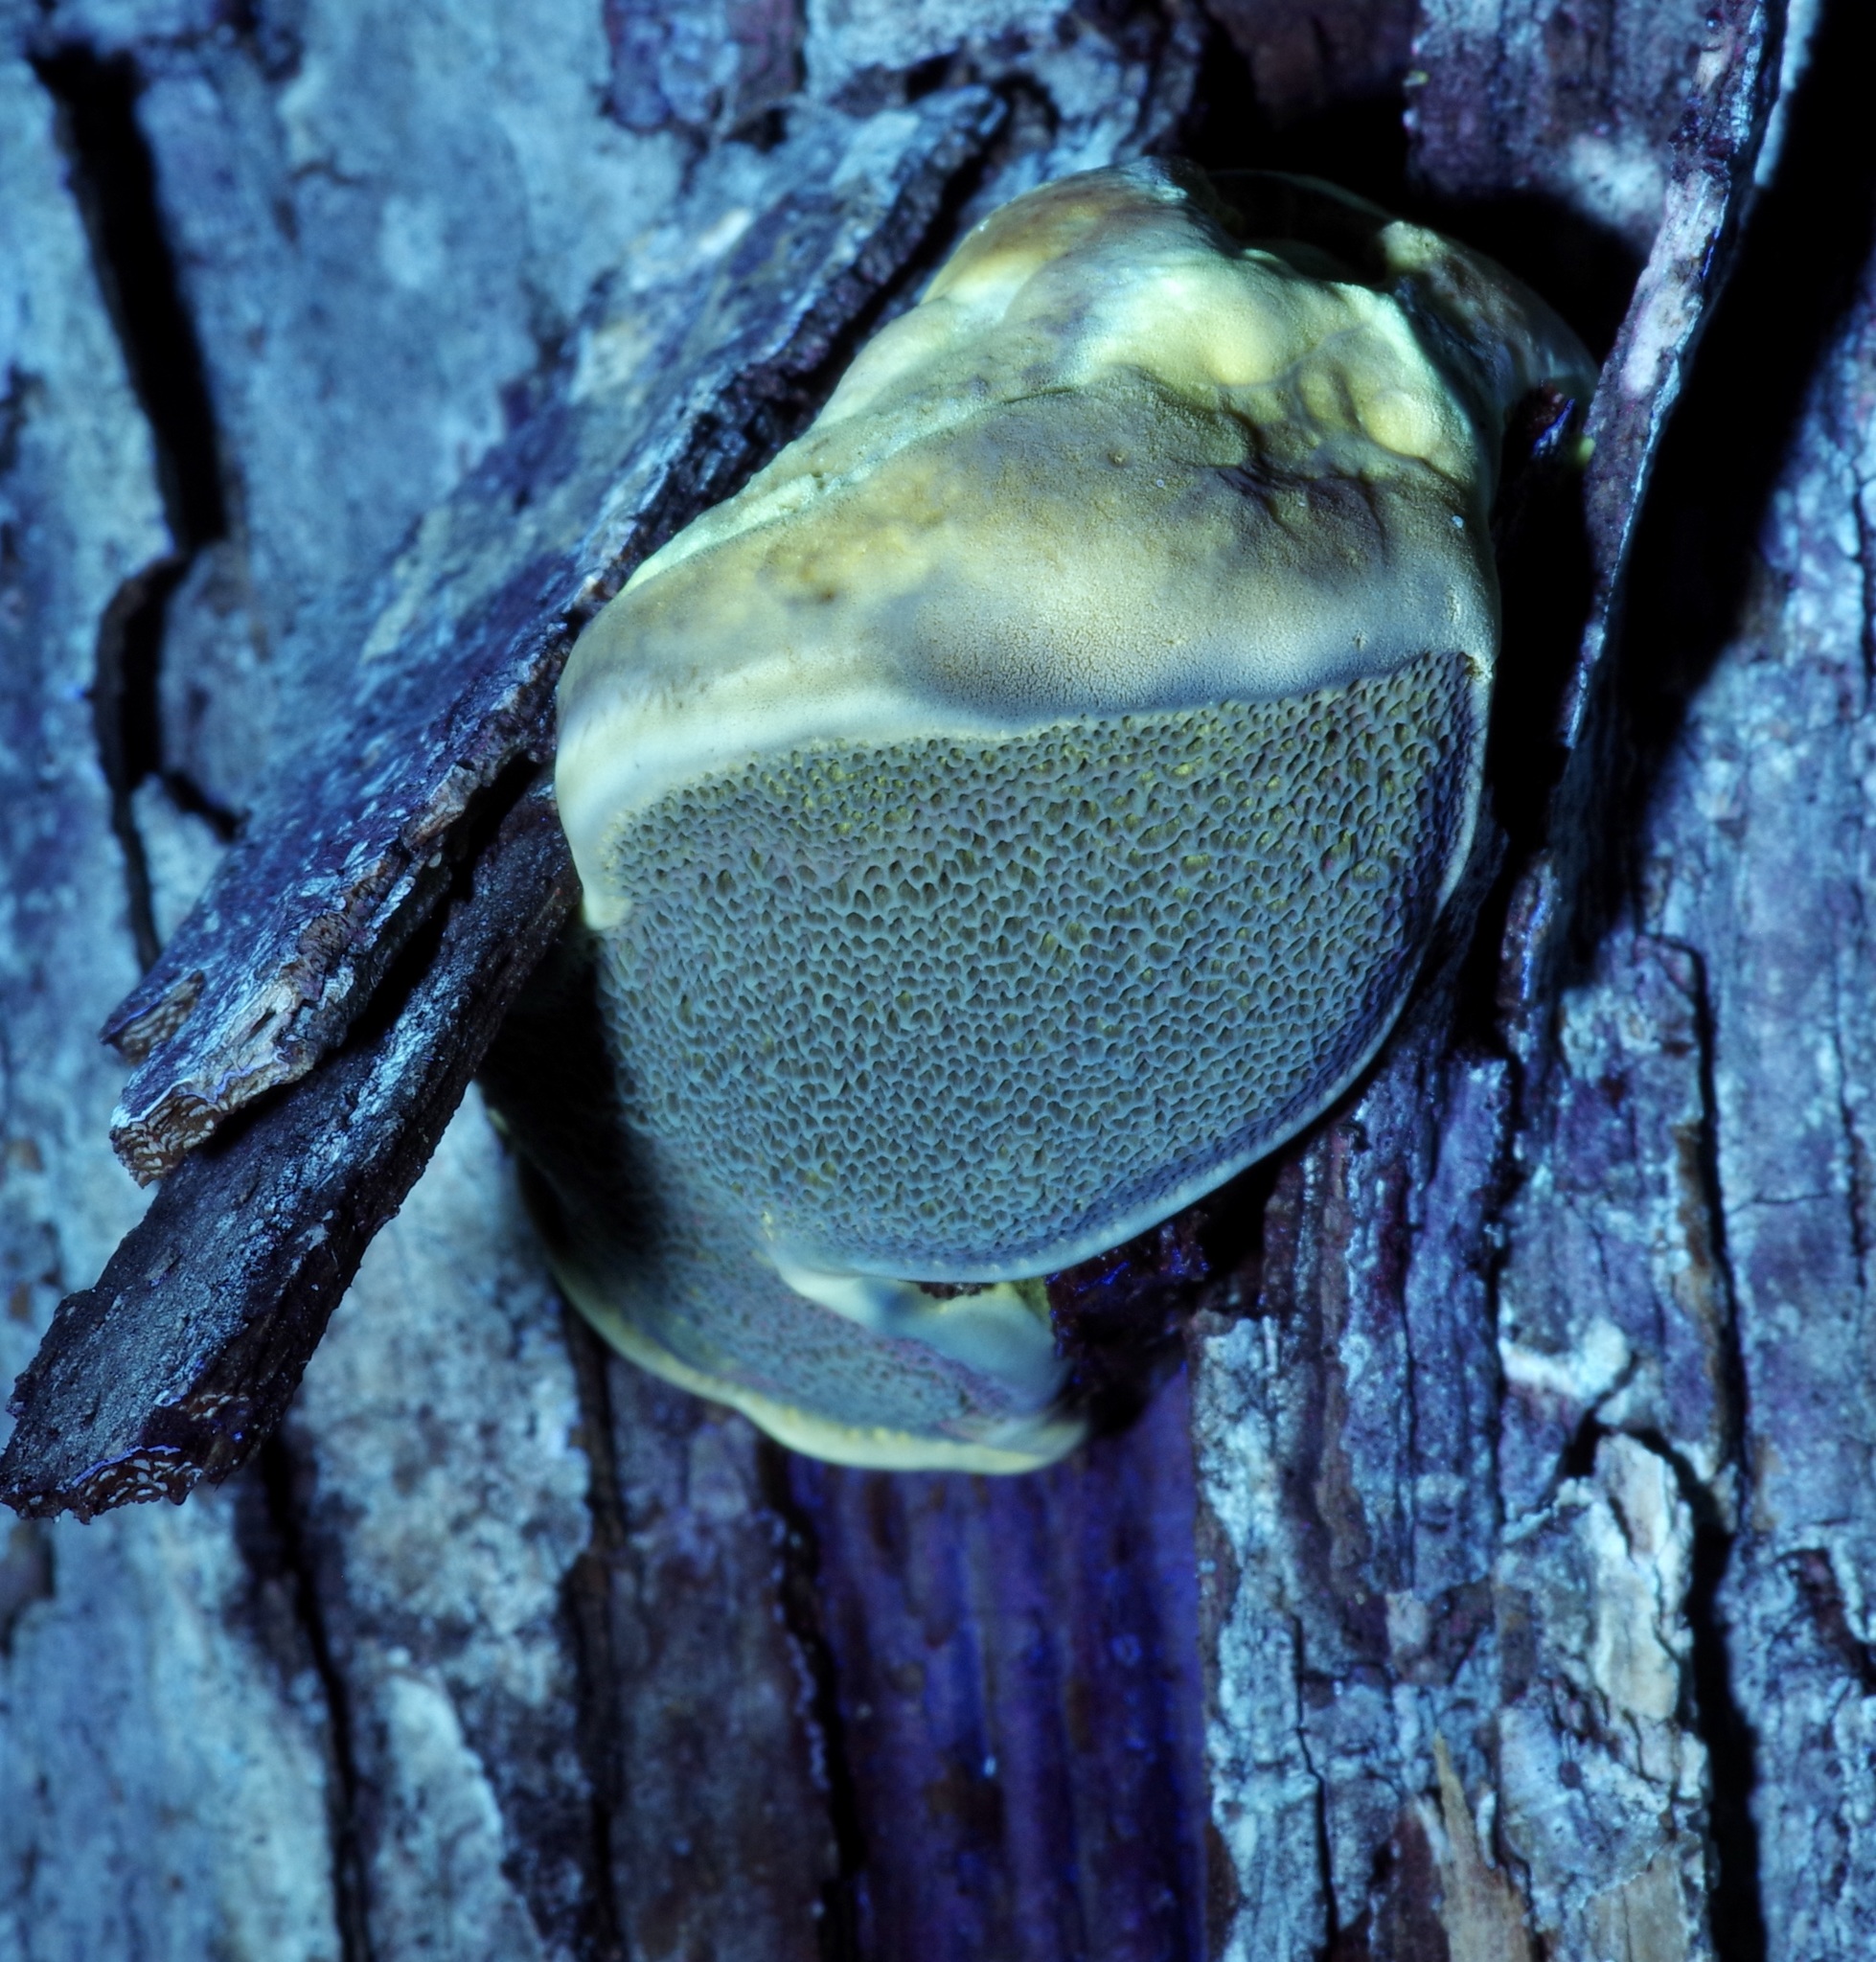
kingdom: Fungi
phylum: Basidiomycota
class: Agaricomycetes
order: Hymenochaetales
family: Hymenochaetaceae
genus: Inocutis
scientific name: Inocutis dryophila
